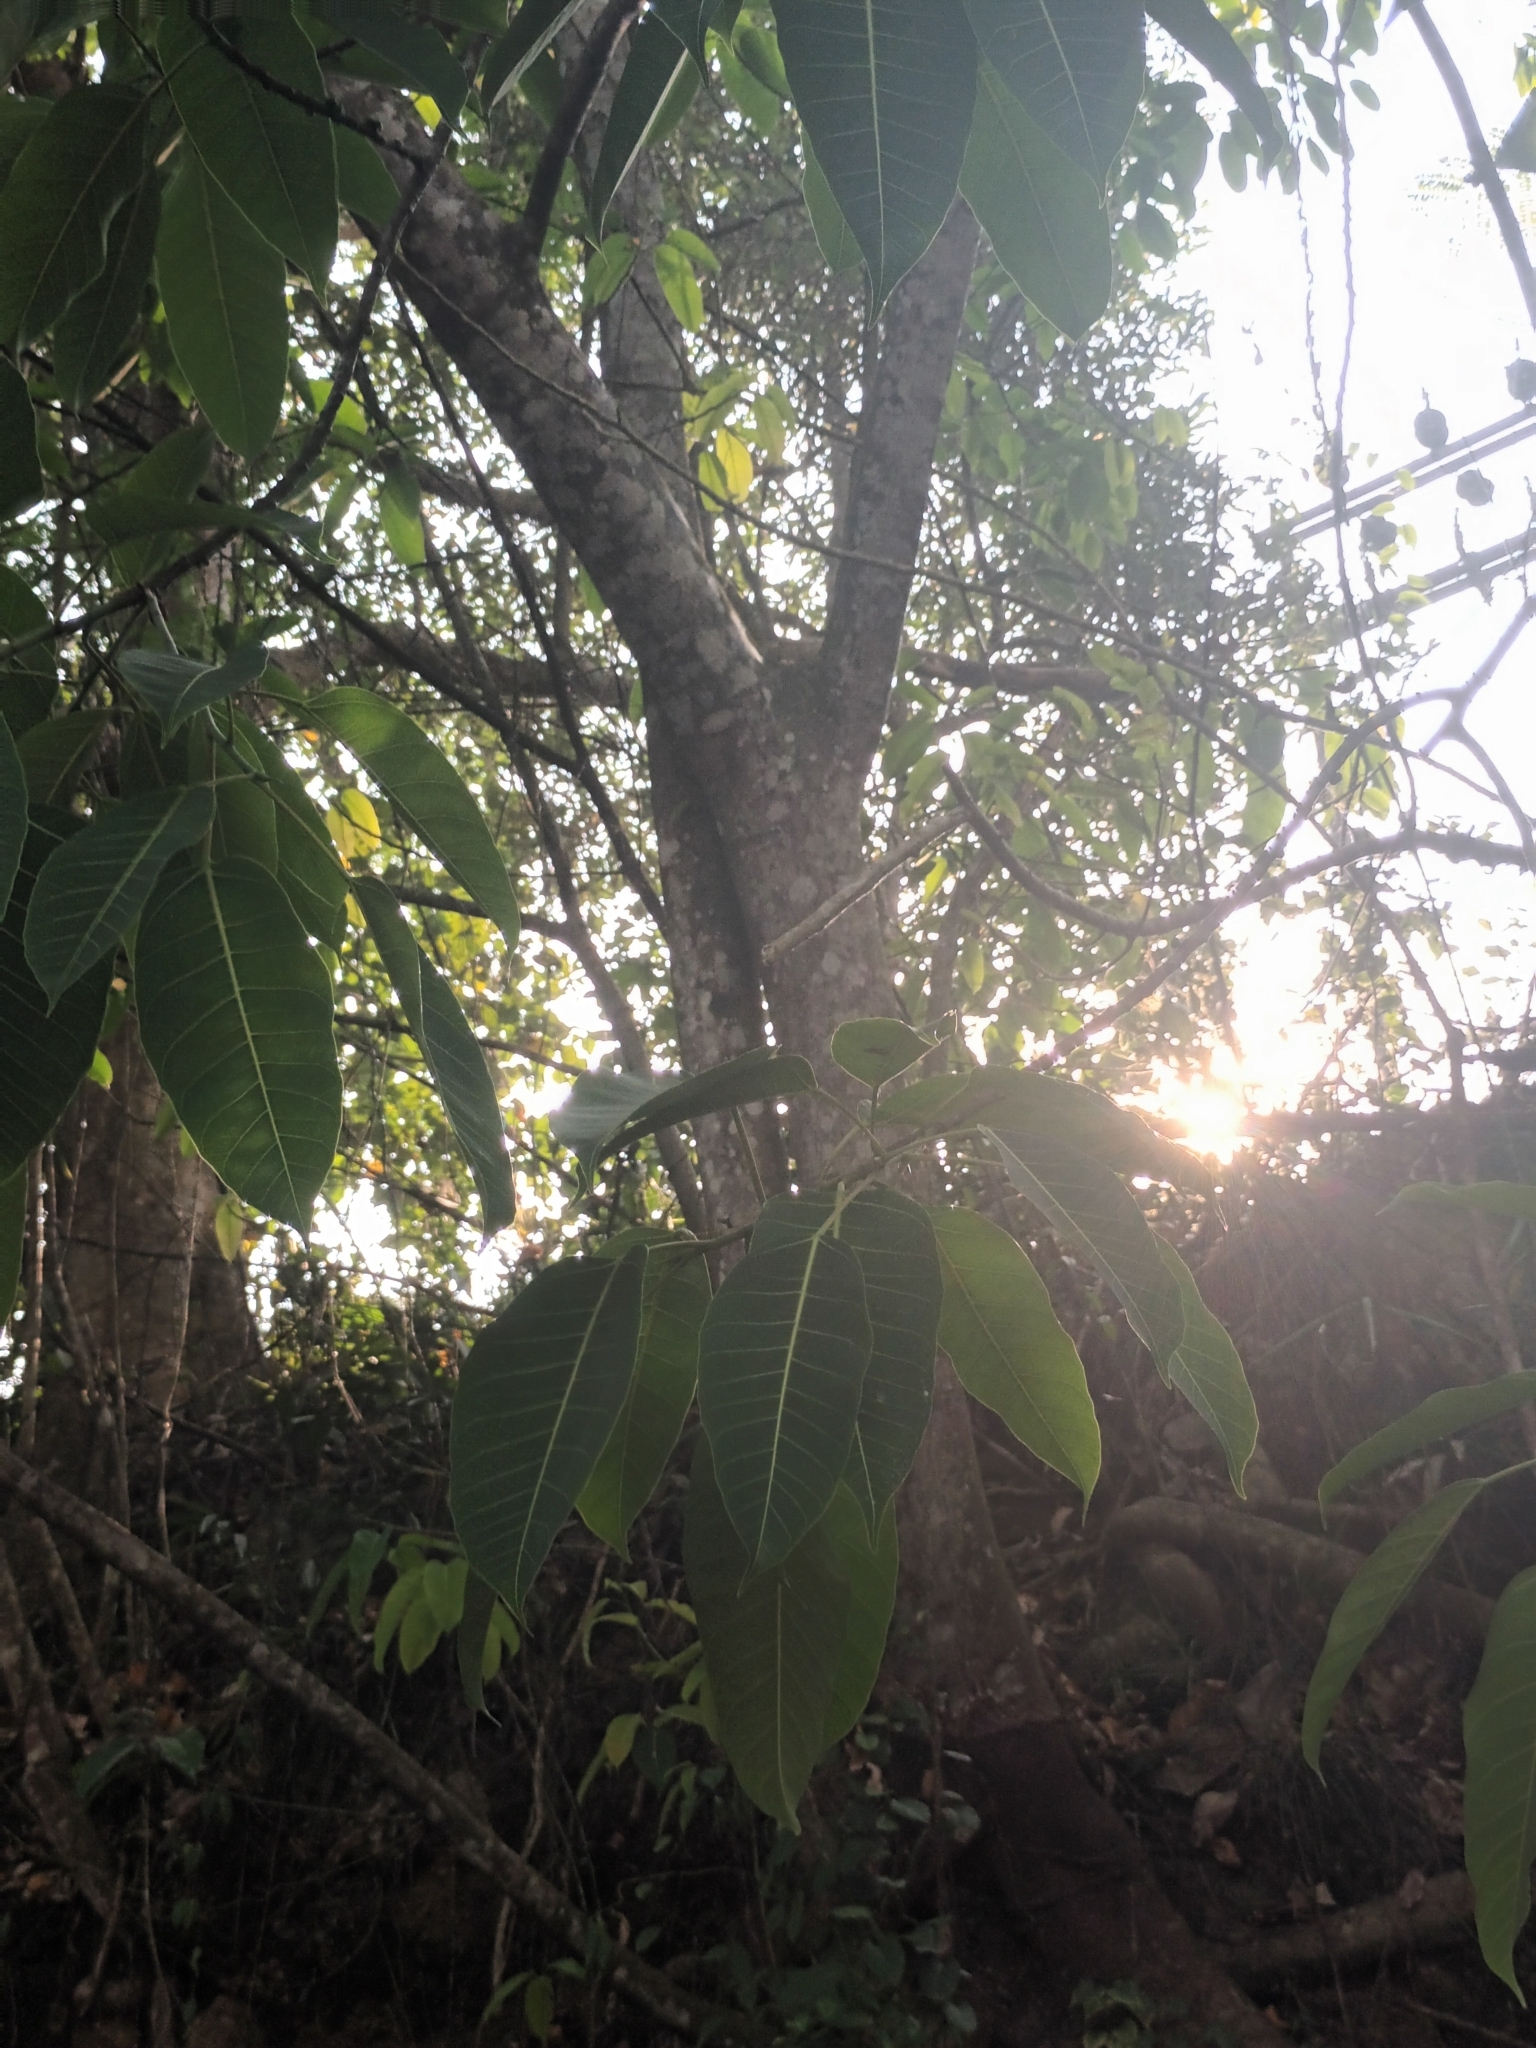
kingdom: Plantae
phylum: Tracheophyta
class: Magnoliopsida
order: Rosales
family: Moraceae
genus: Ficus
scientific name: Ficus tsjakela
